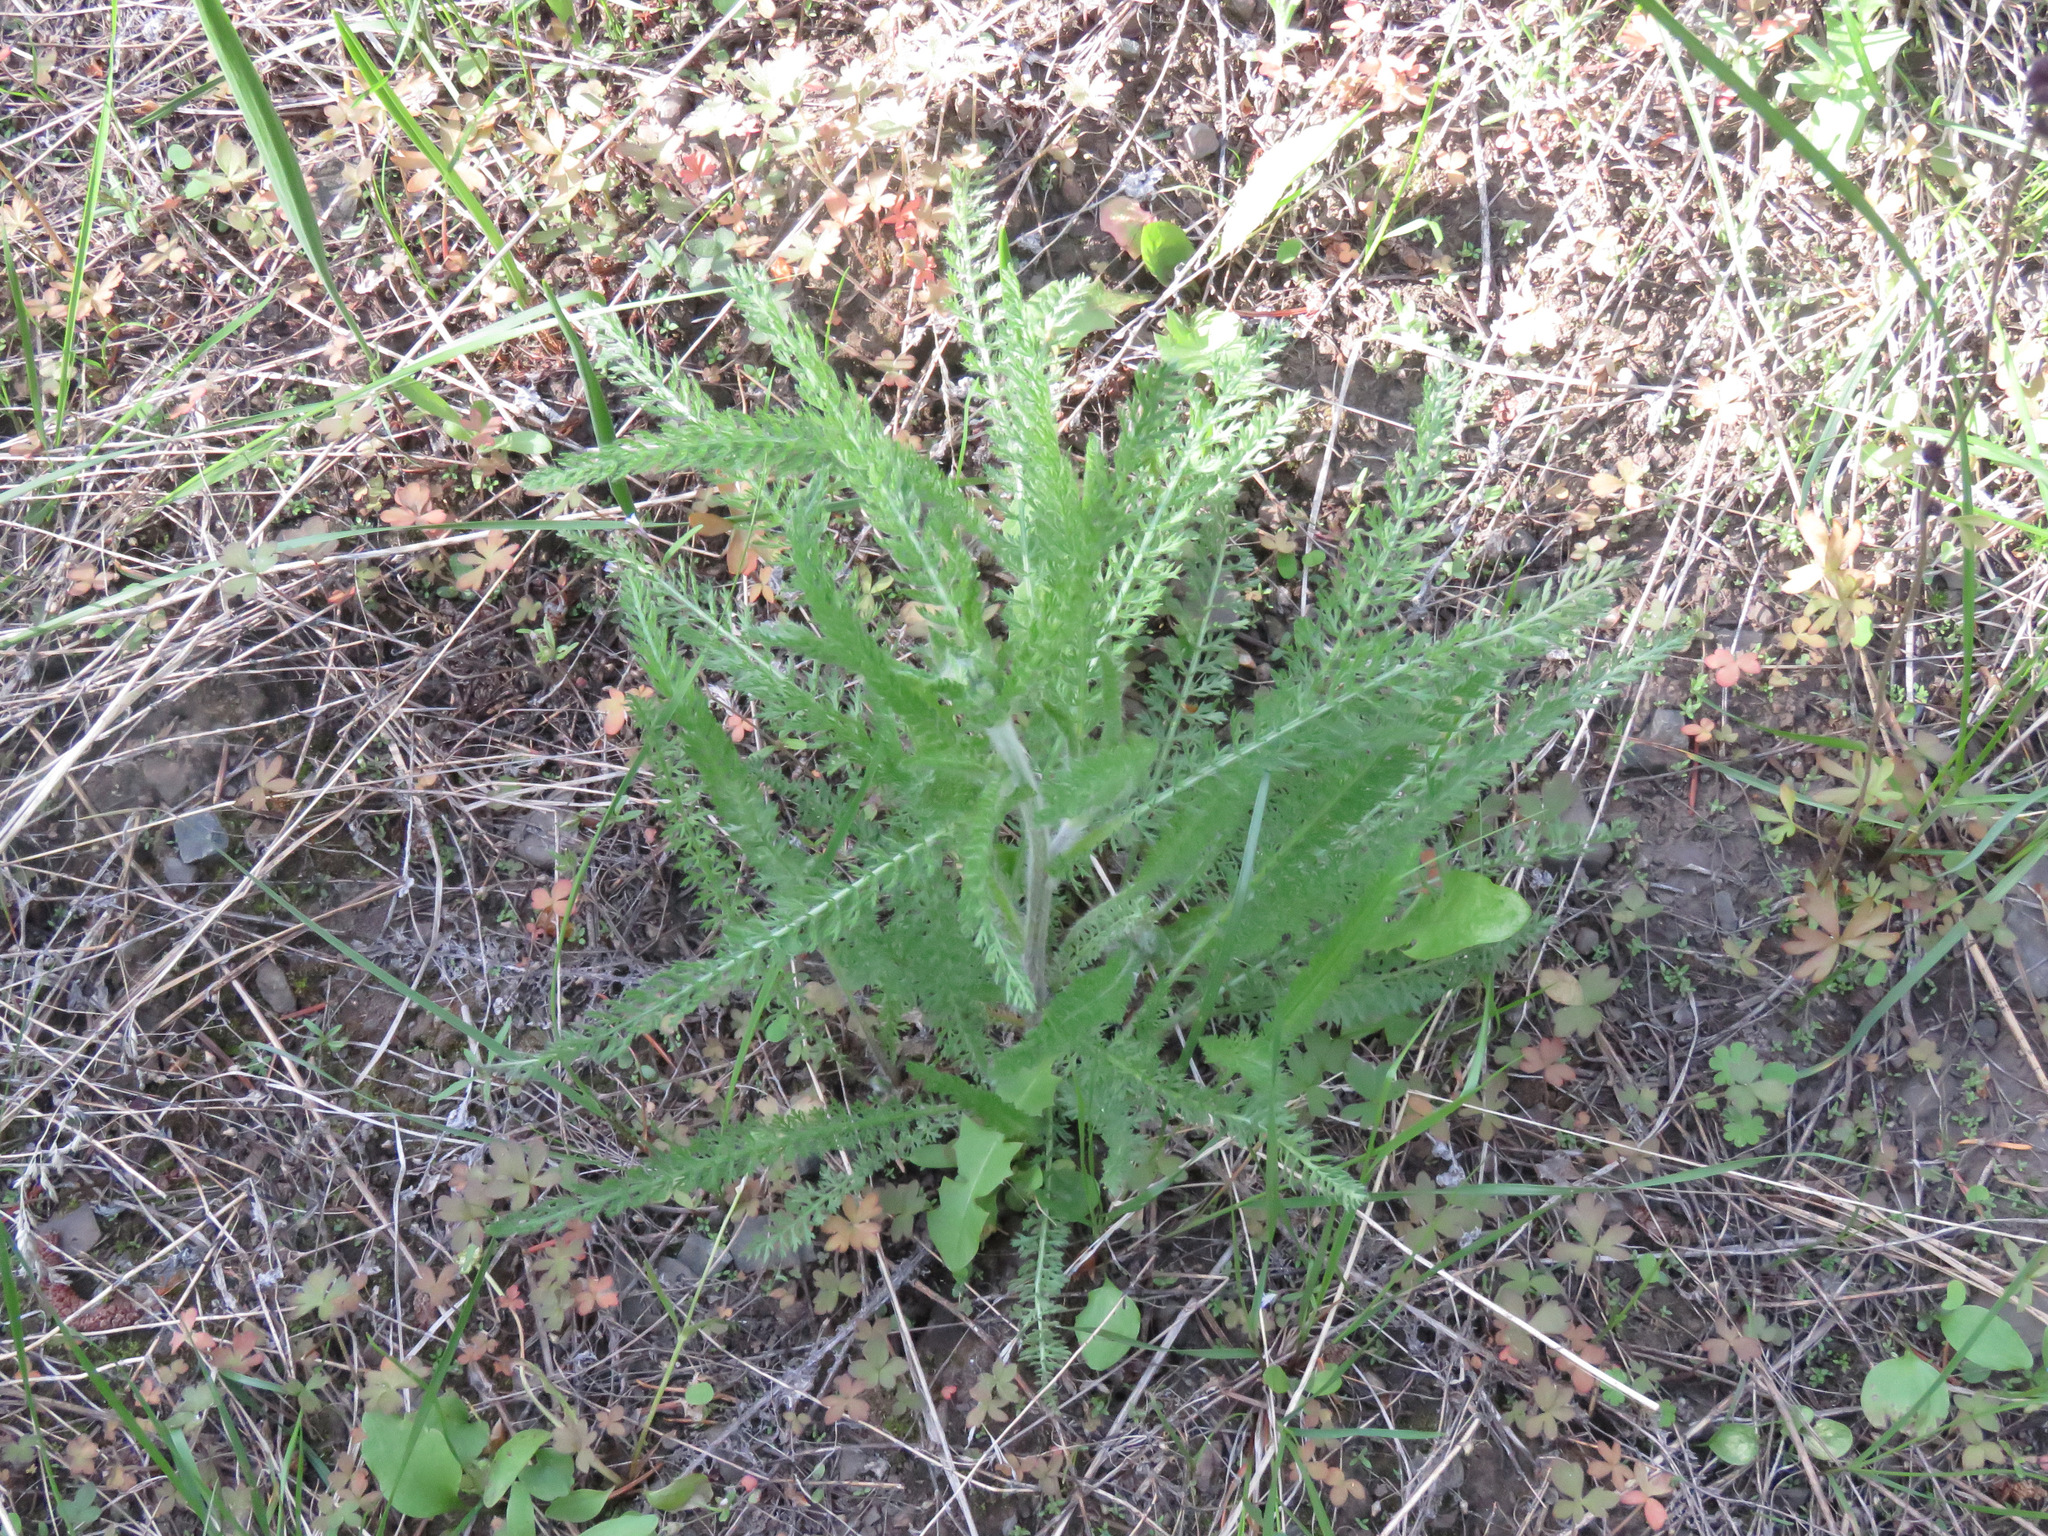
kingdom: Plantae
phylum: Tracheophyta
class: Magnoliopsida
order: Asterales
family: Asteraceae
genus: Achillea
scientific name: Achillea millefolium
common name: Yarrow
